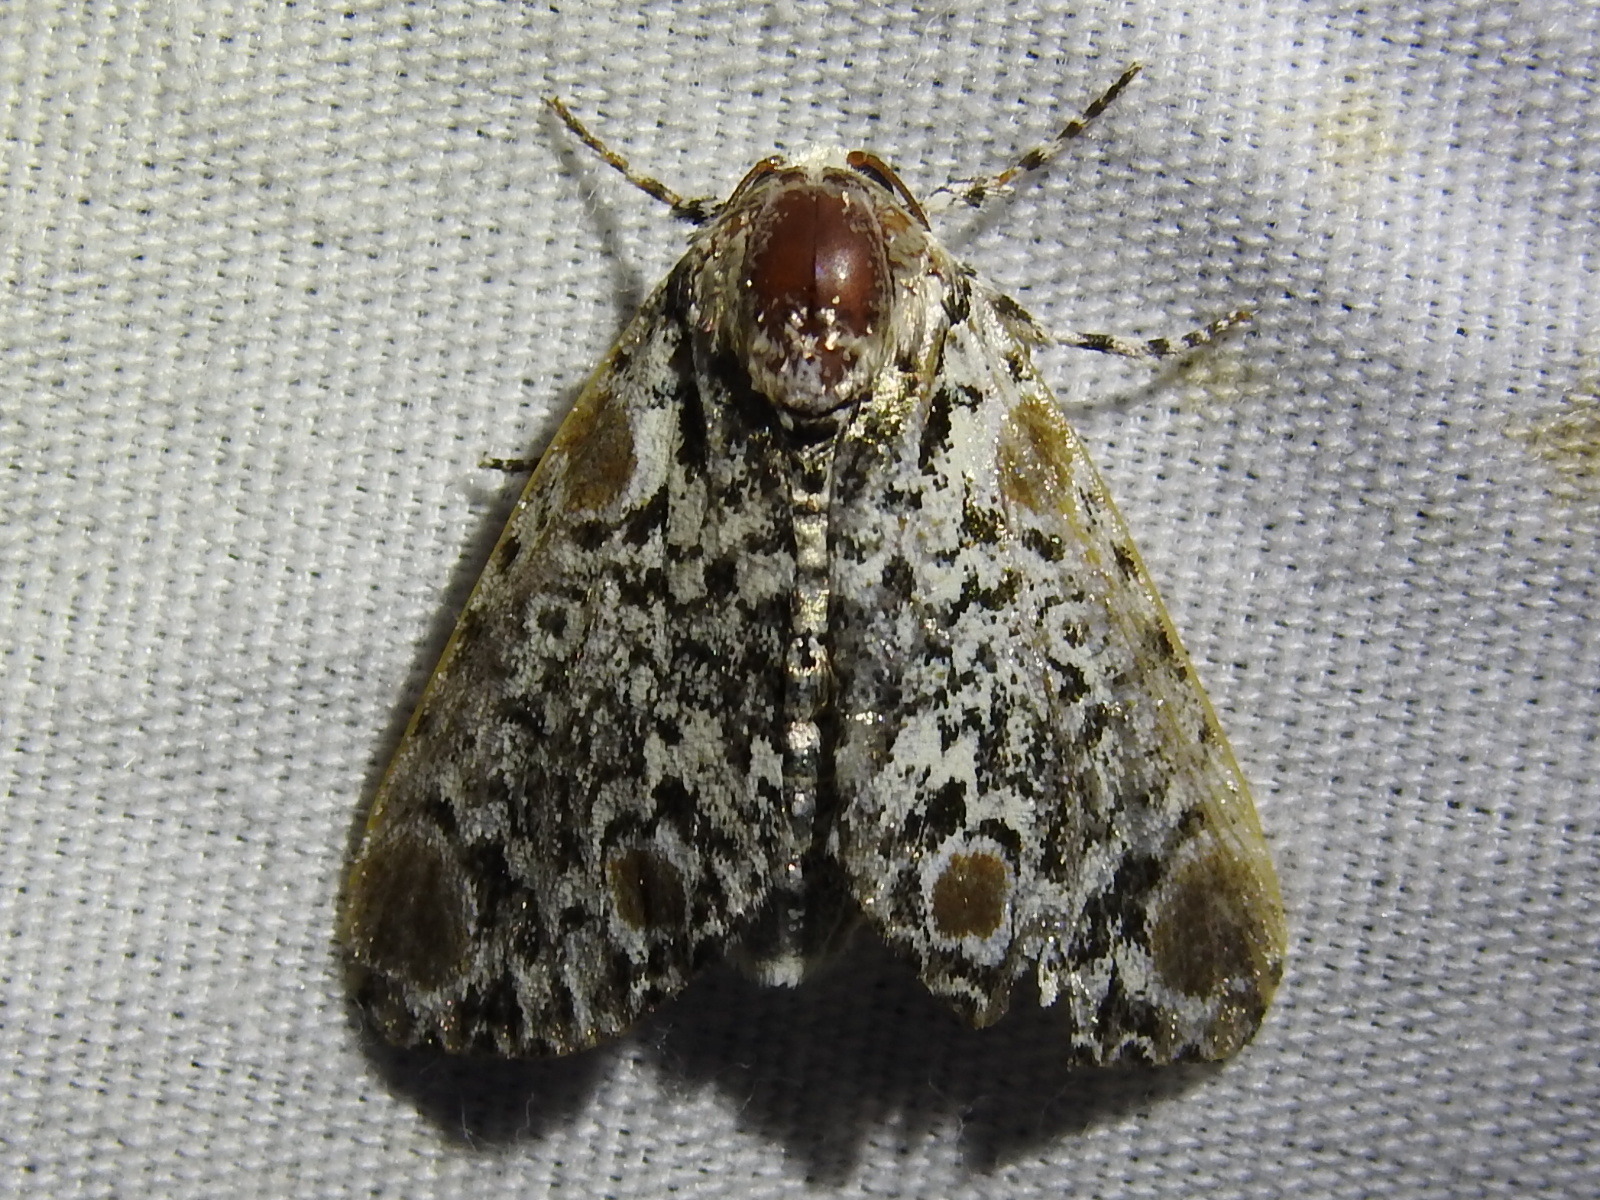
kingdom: Animalia
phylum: Arthropoda
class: Insecta
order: Lepidoptera
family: Noctuidae
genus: Harrisimemna
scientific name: Harrisimemna trisignata
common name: Harris threespot
